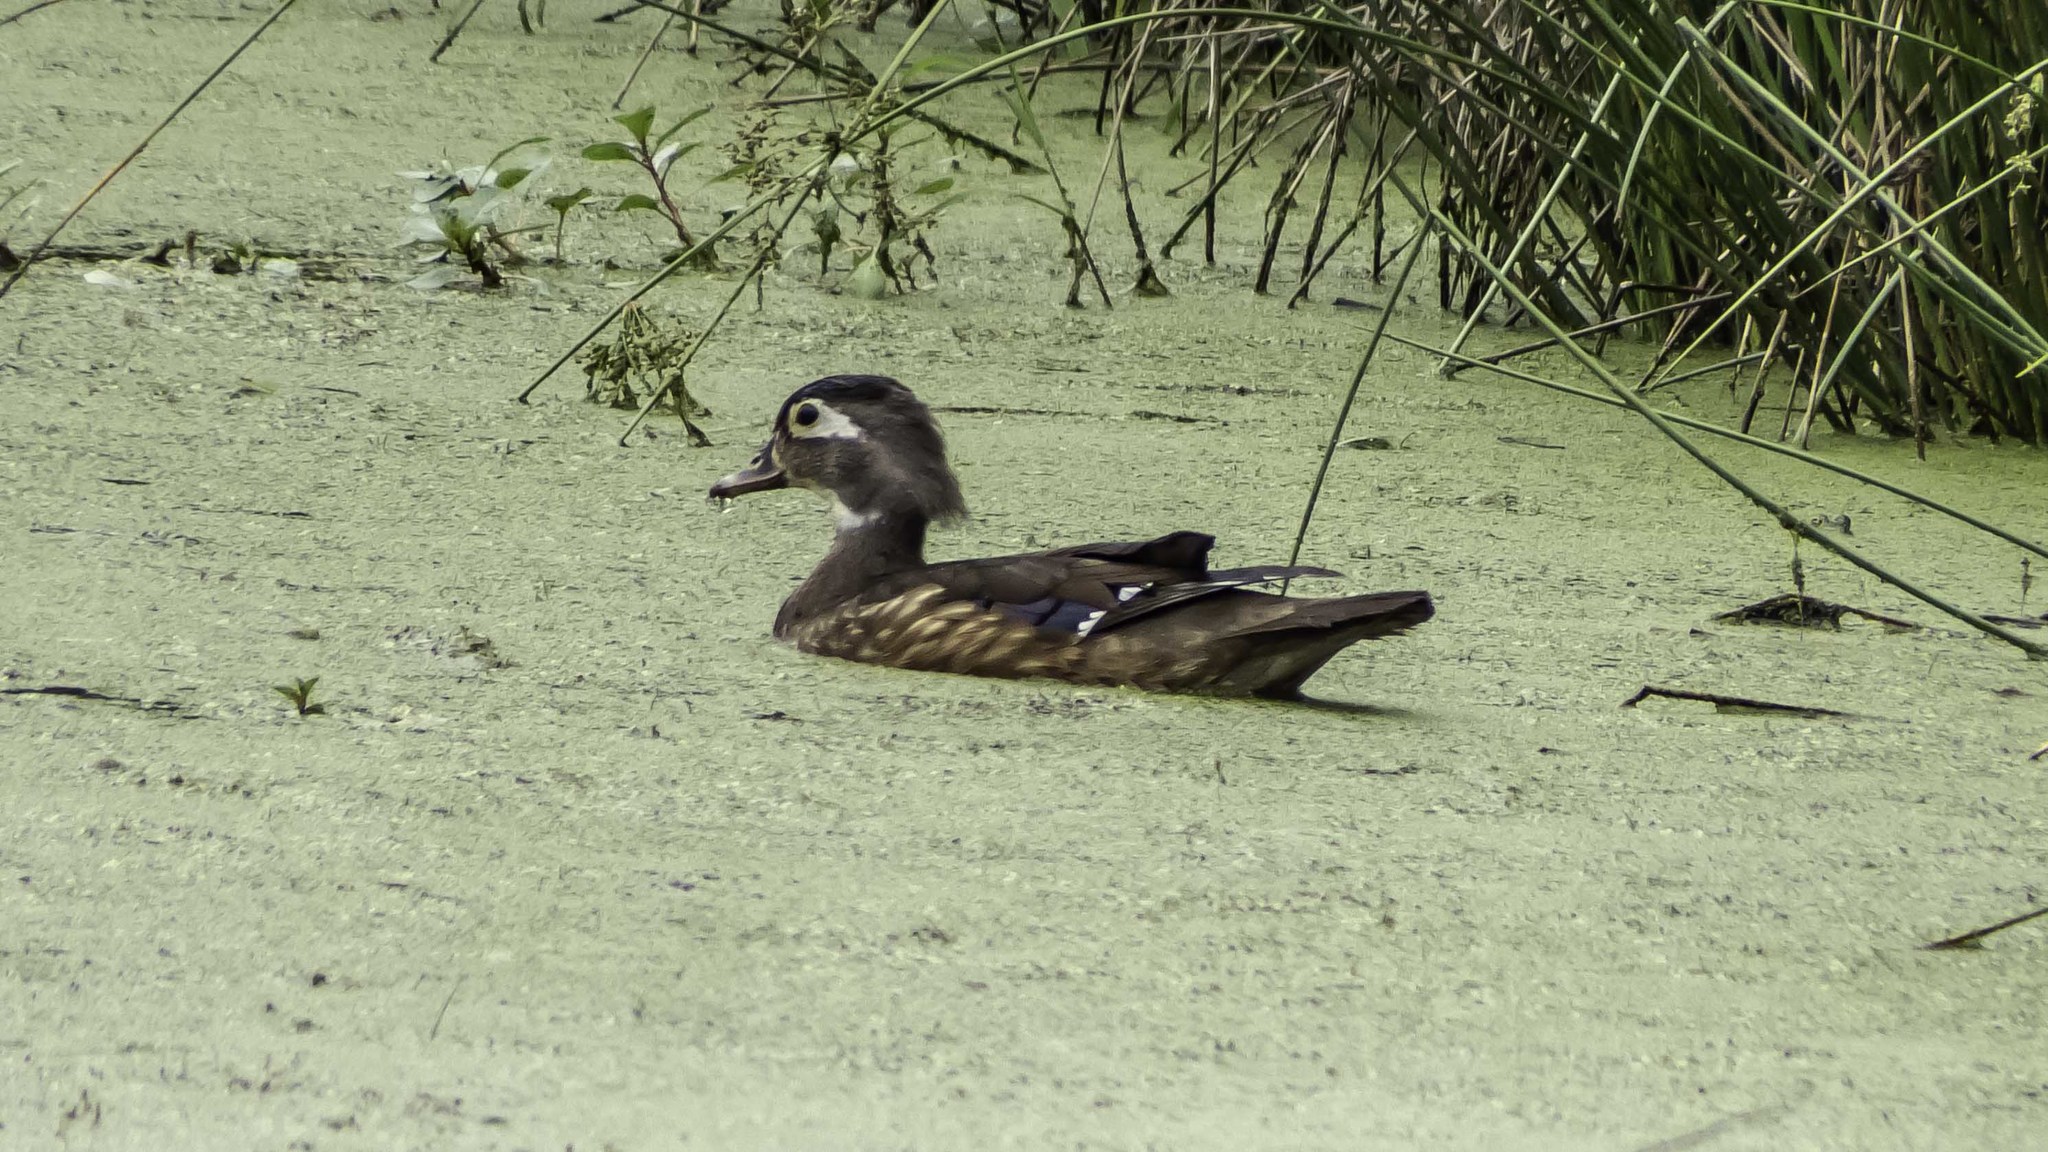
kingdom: Animalia
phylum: Chordata
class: Aves
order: Anseriformes
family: Anatidae
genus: Aix
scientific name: Aix sponsa
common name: Wood duck
